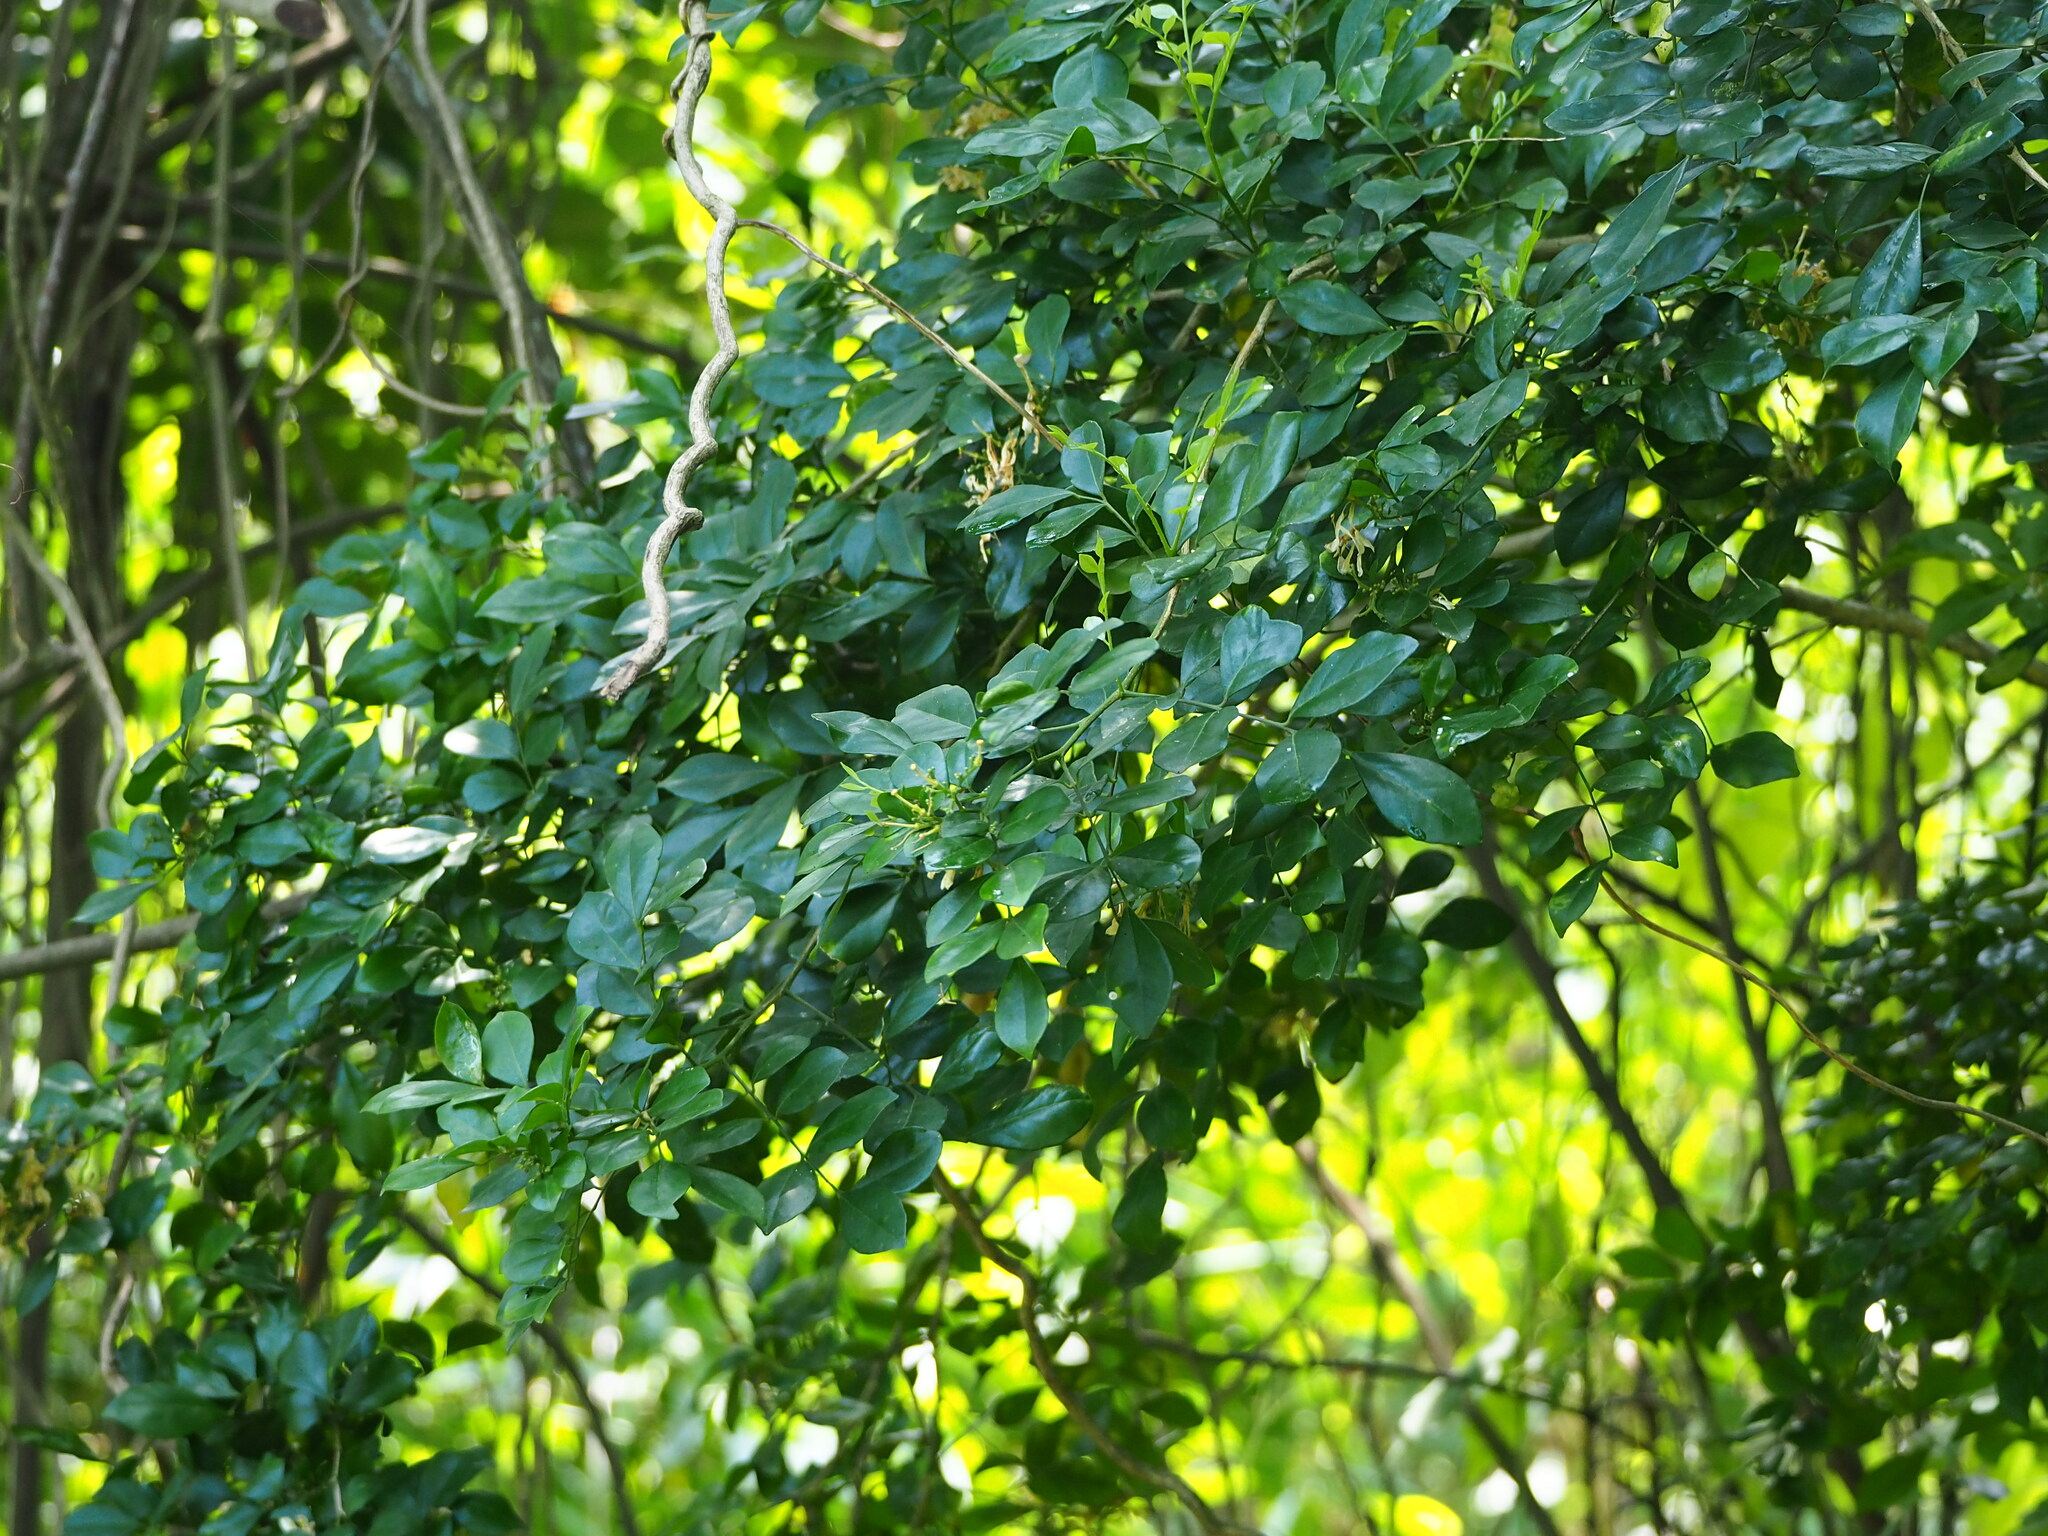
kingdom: Plantae
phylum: Tracheophyta
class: Magnoliopsida
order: Sapindales
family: Rutaceae
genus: Murraya
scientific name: Murraya paniculata
